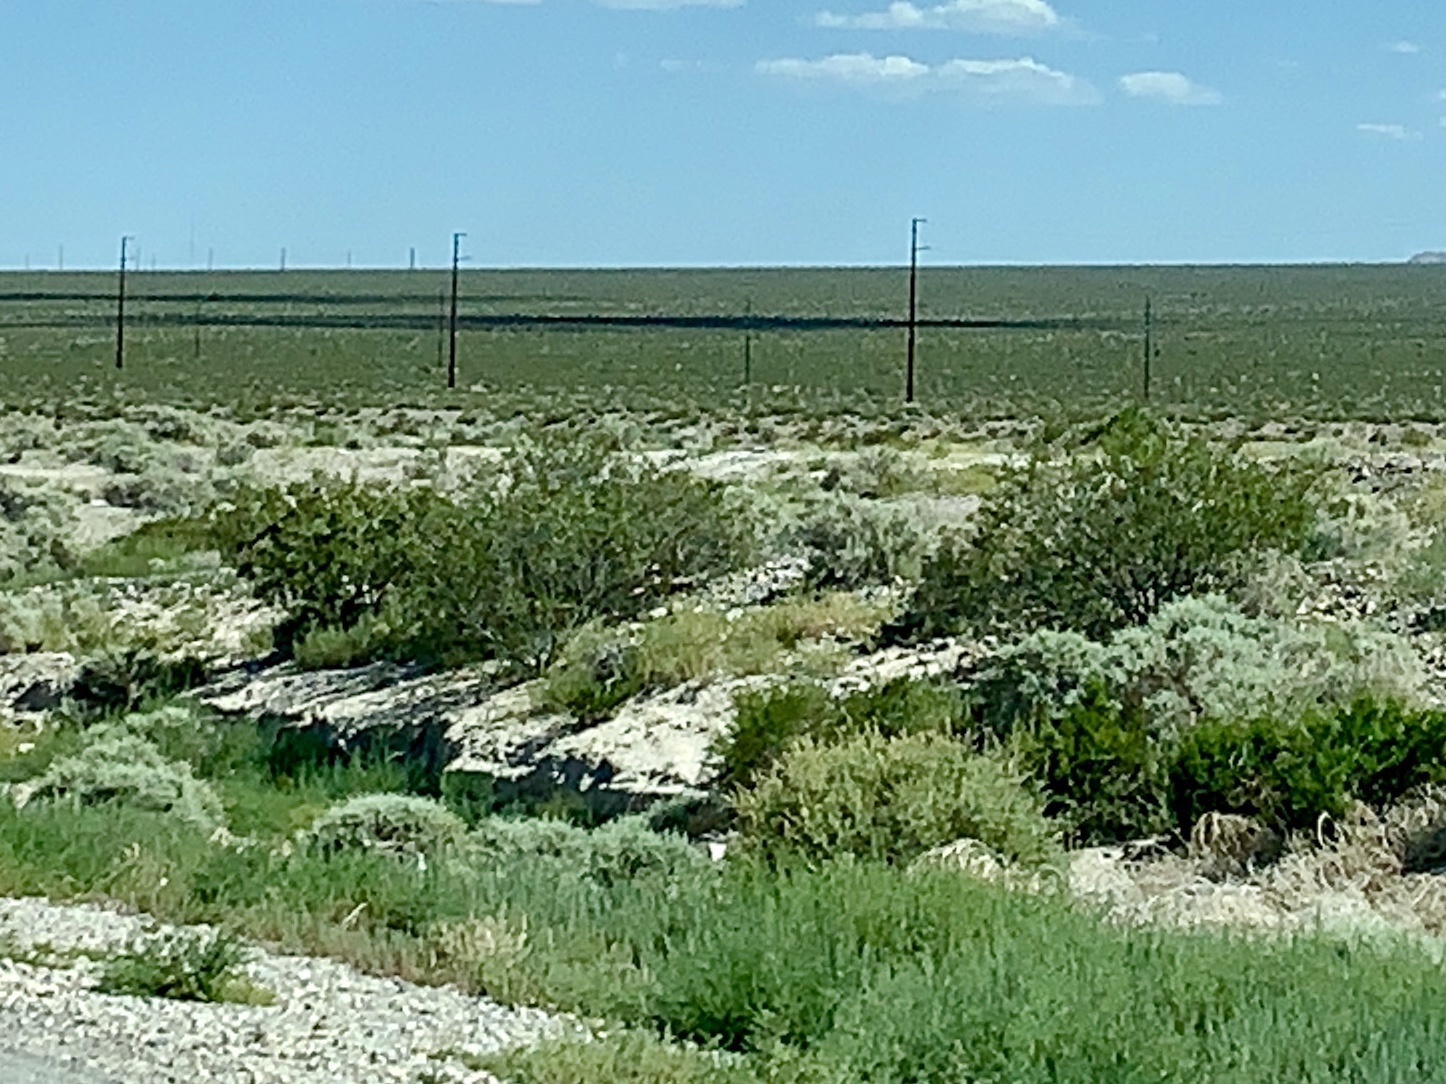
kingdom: Plantae
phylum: Tracheophyta
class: Magnoliopsida
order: Zygophyllales
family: Zygophyllaceae
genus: Larrea
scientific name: Larrea tridentata
